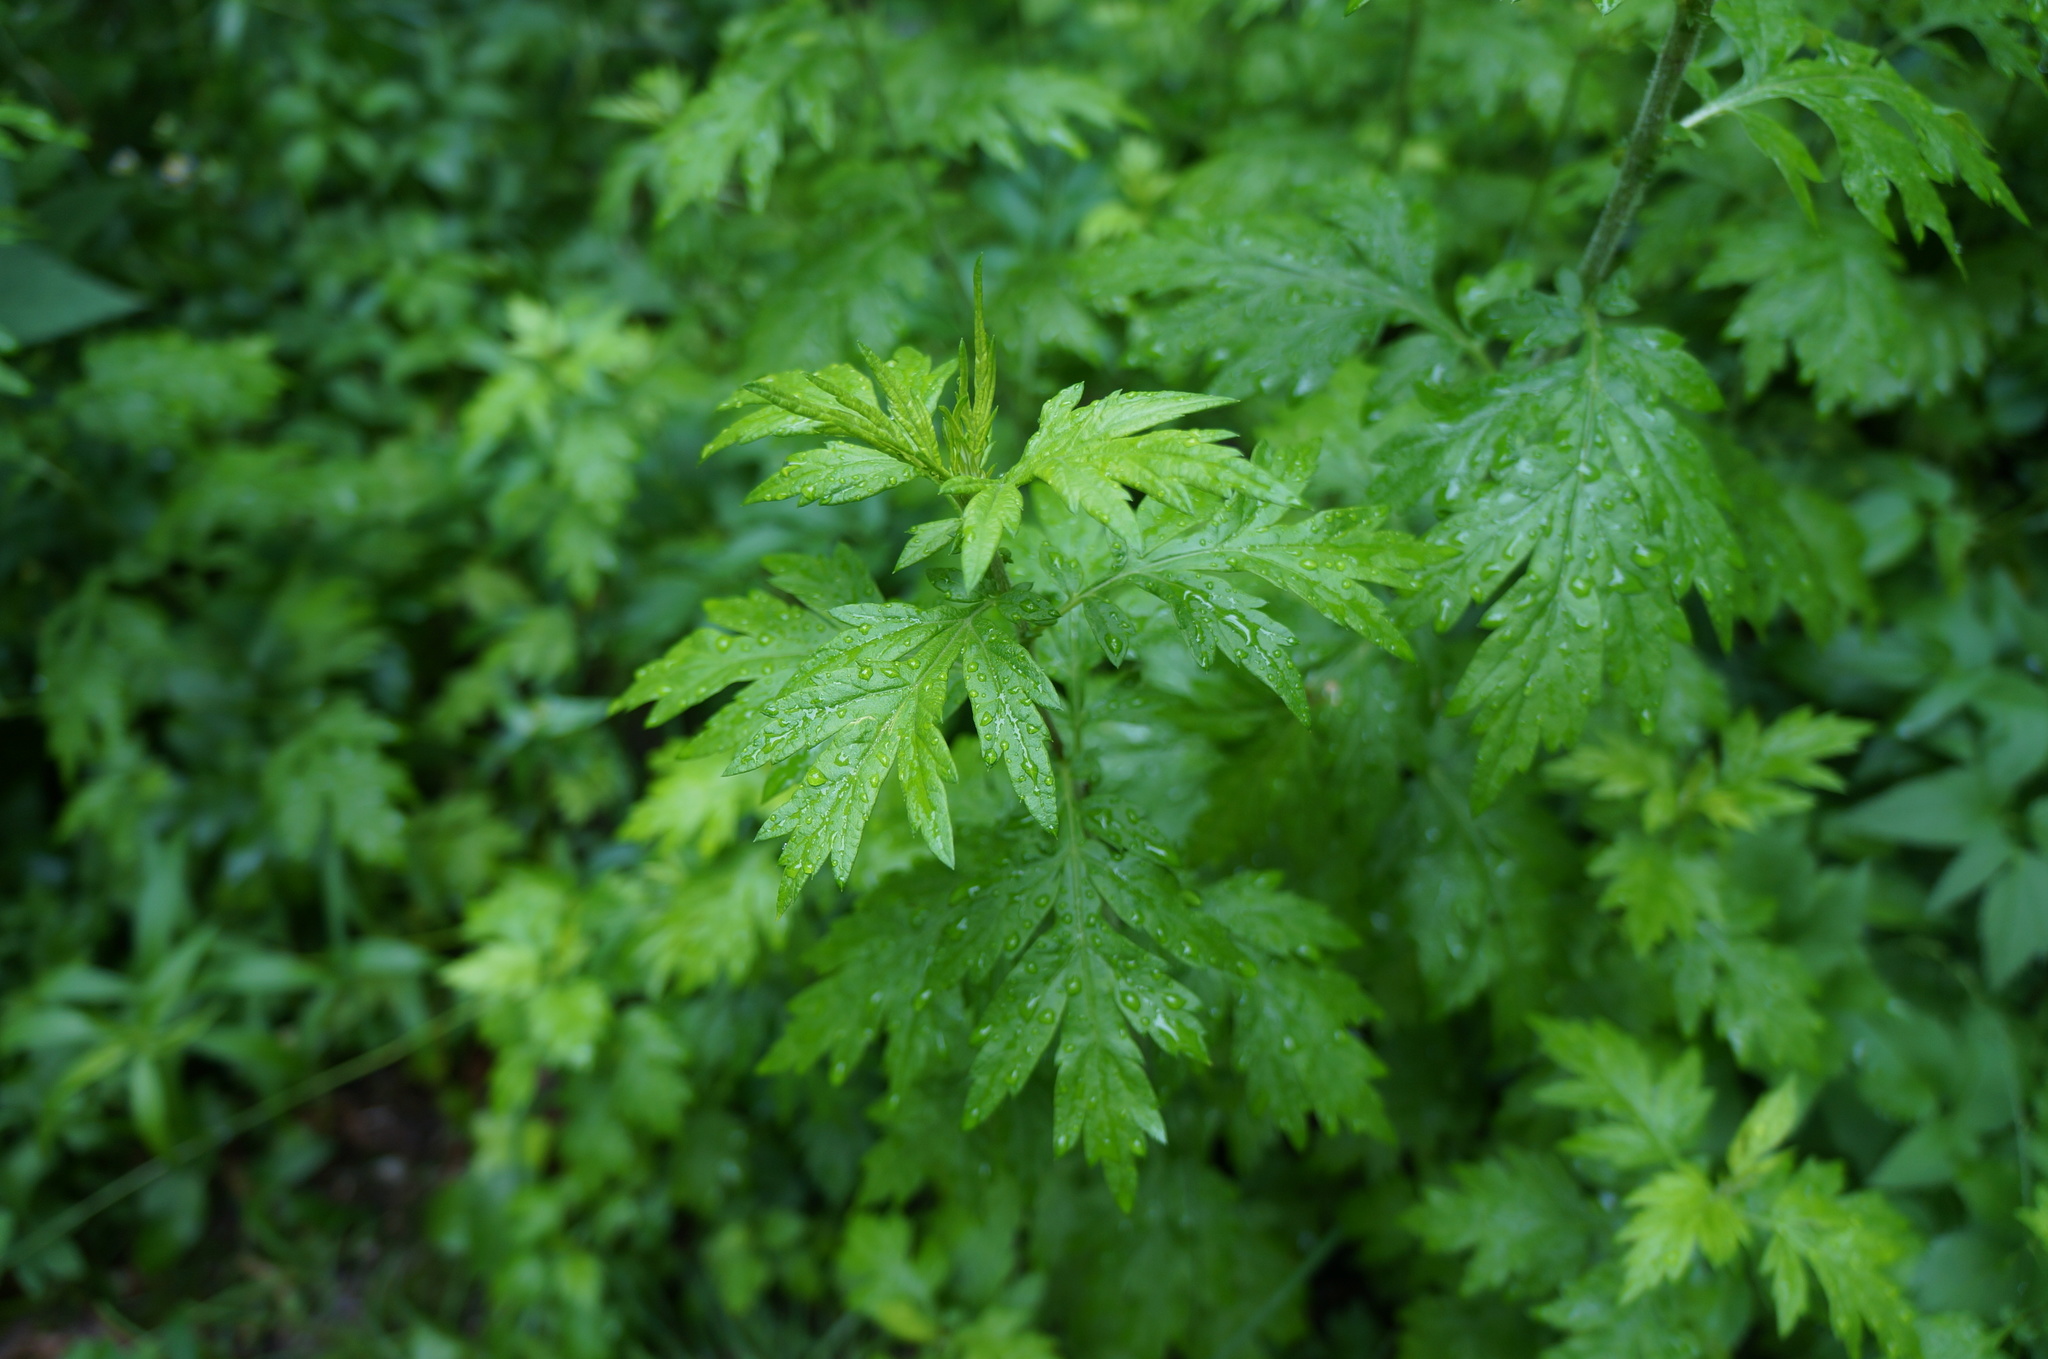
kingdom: Plantae
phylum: Tracheophyta
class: Magnoliopsida
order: Asterales
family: Asteraceae
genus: Artemisia
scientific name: Artemisia vulgaris
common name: Mugwort
